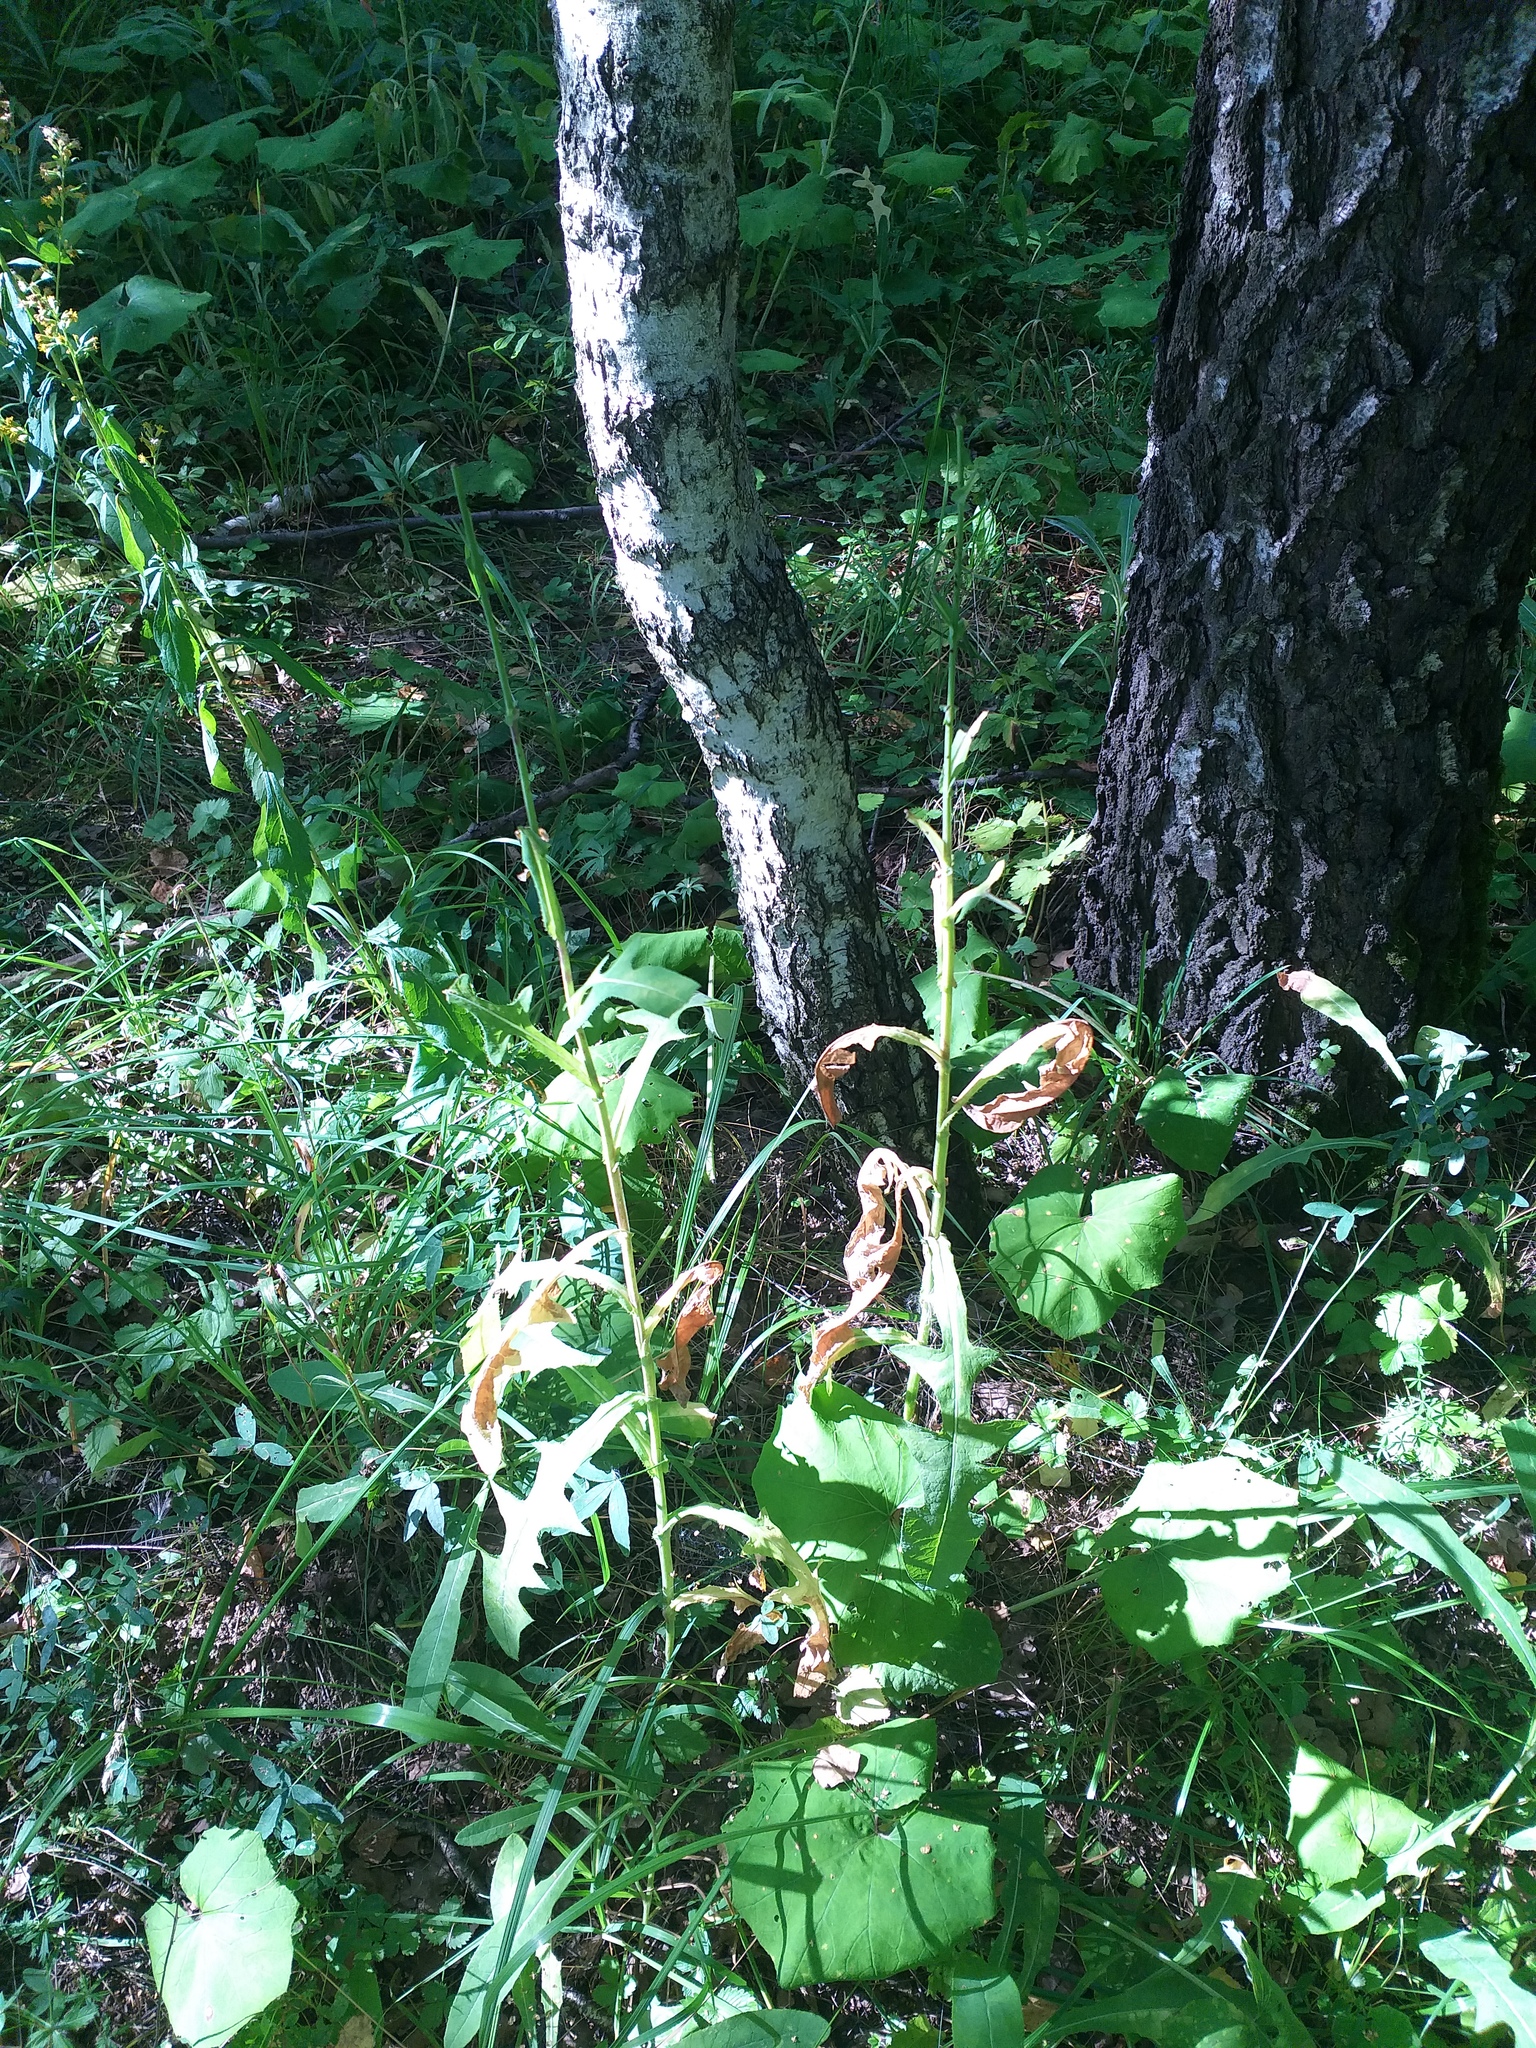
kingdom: Plantae
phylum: Tracheophyta
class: Magnoliopsida
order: Asterales
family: Asteraceae
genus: Sonchus
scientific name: Sonchus arvensis
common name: Perennial sow-thistle
